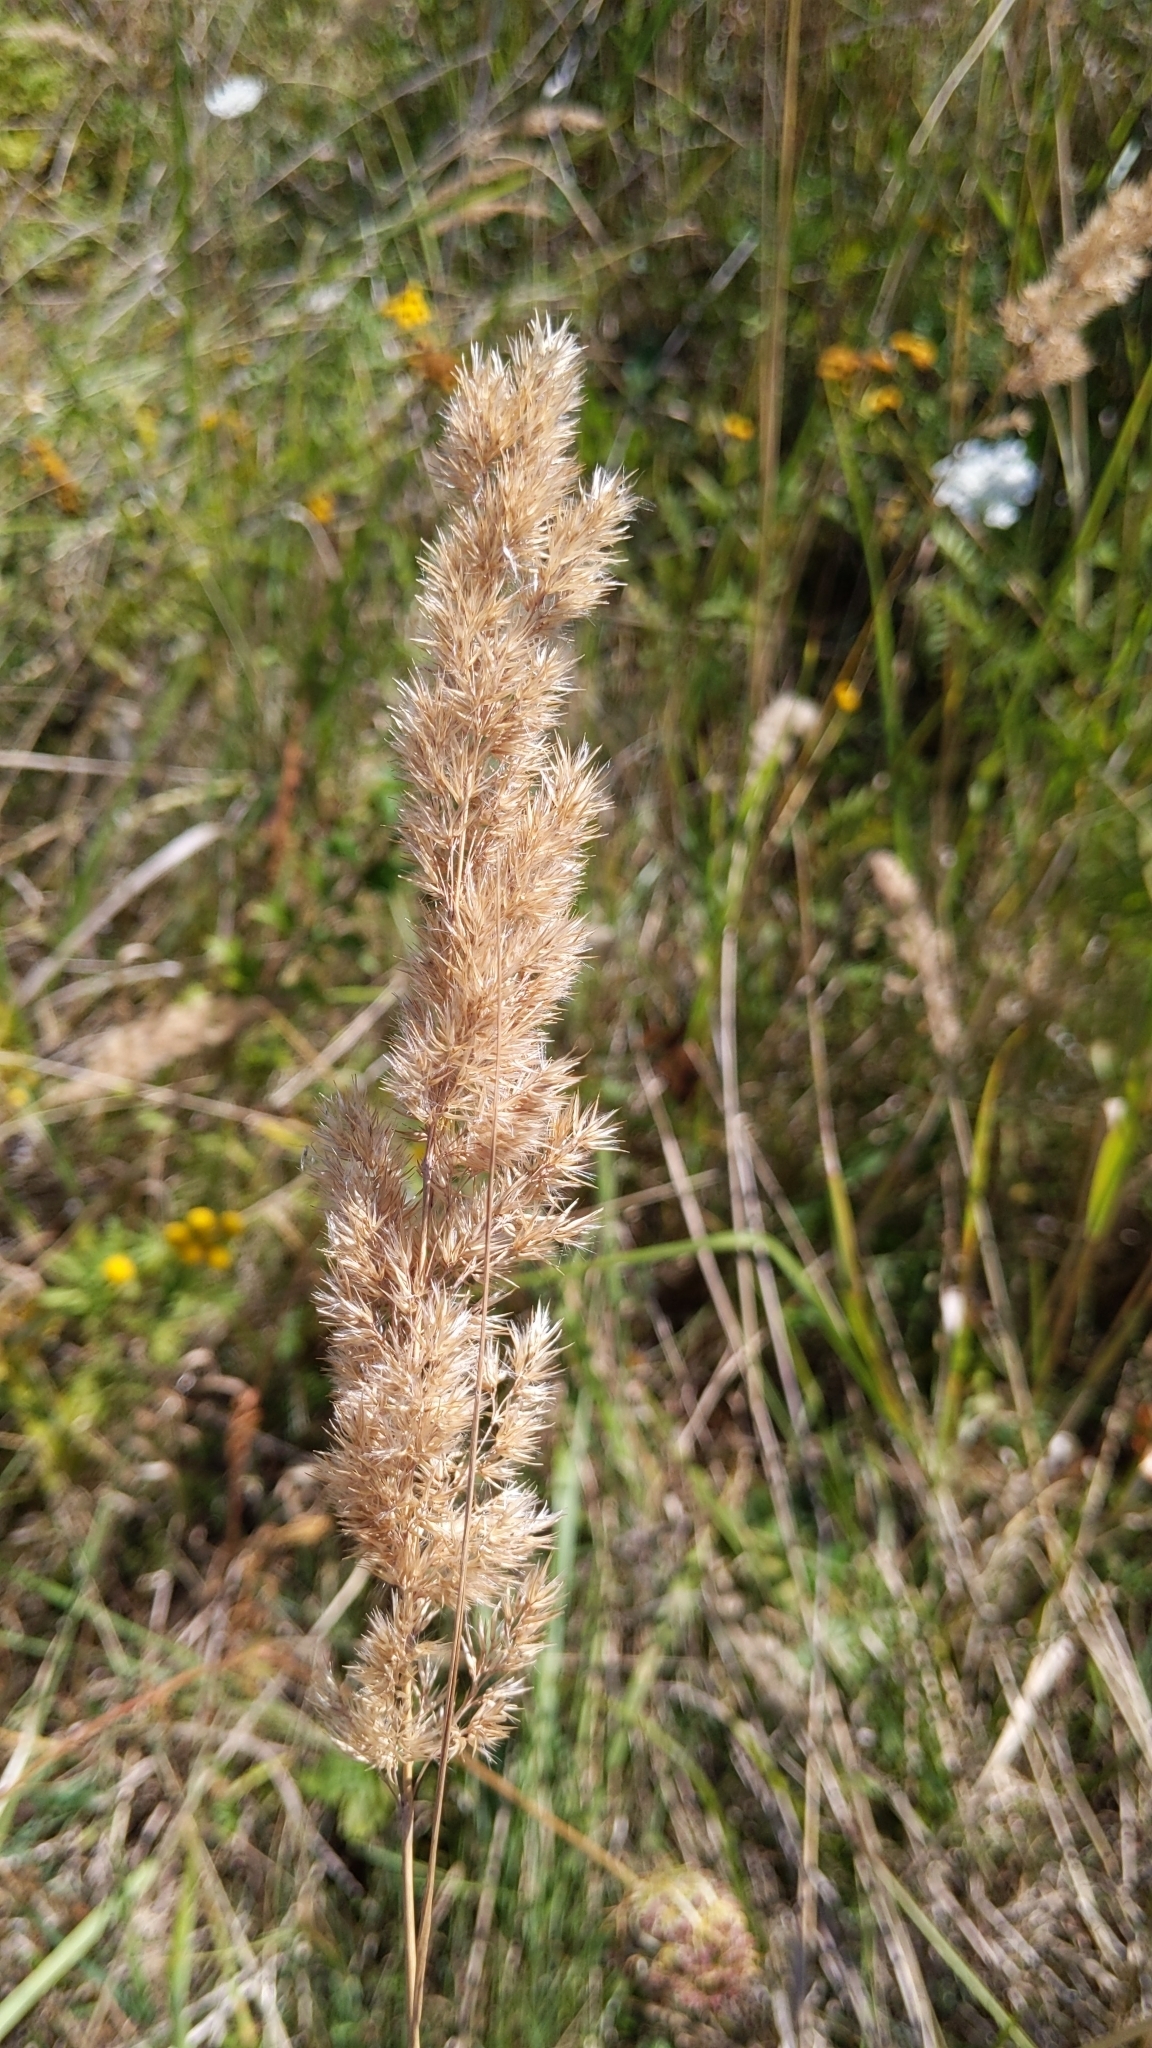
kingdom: Plantae
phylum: Tracheophyta
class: Liliopsida
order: Poales
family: Poaceae
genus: Calamagrostis
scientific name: Calamagrostis epigejos
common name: Wood small-reed
